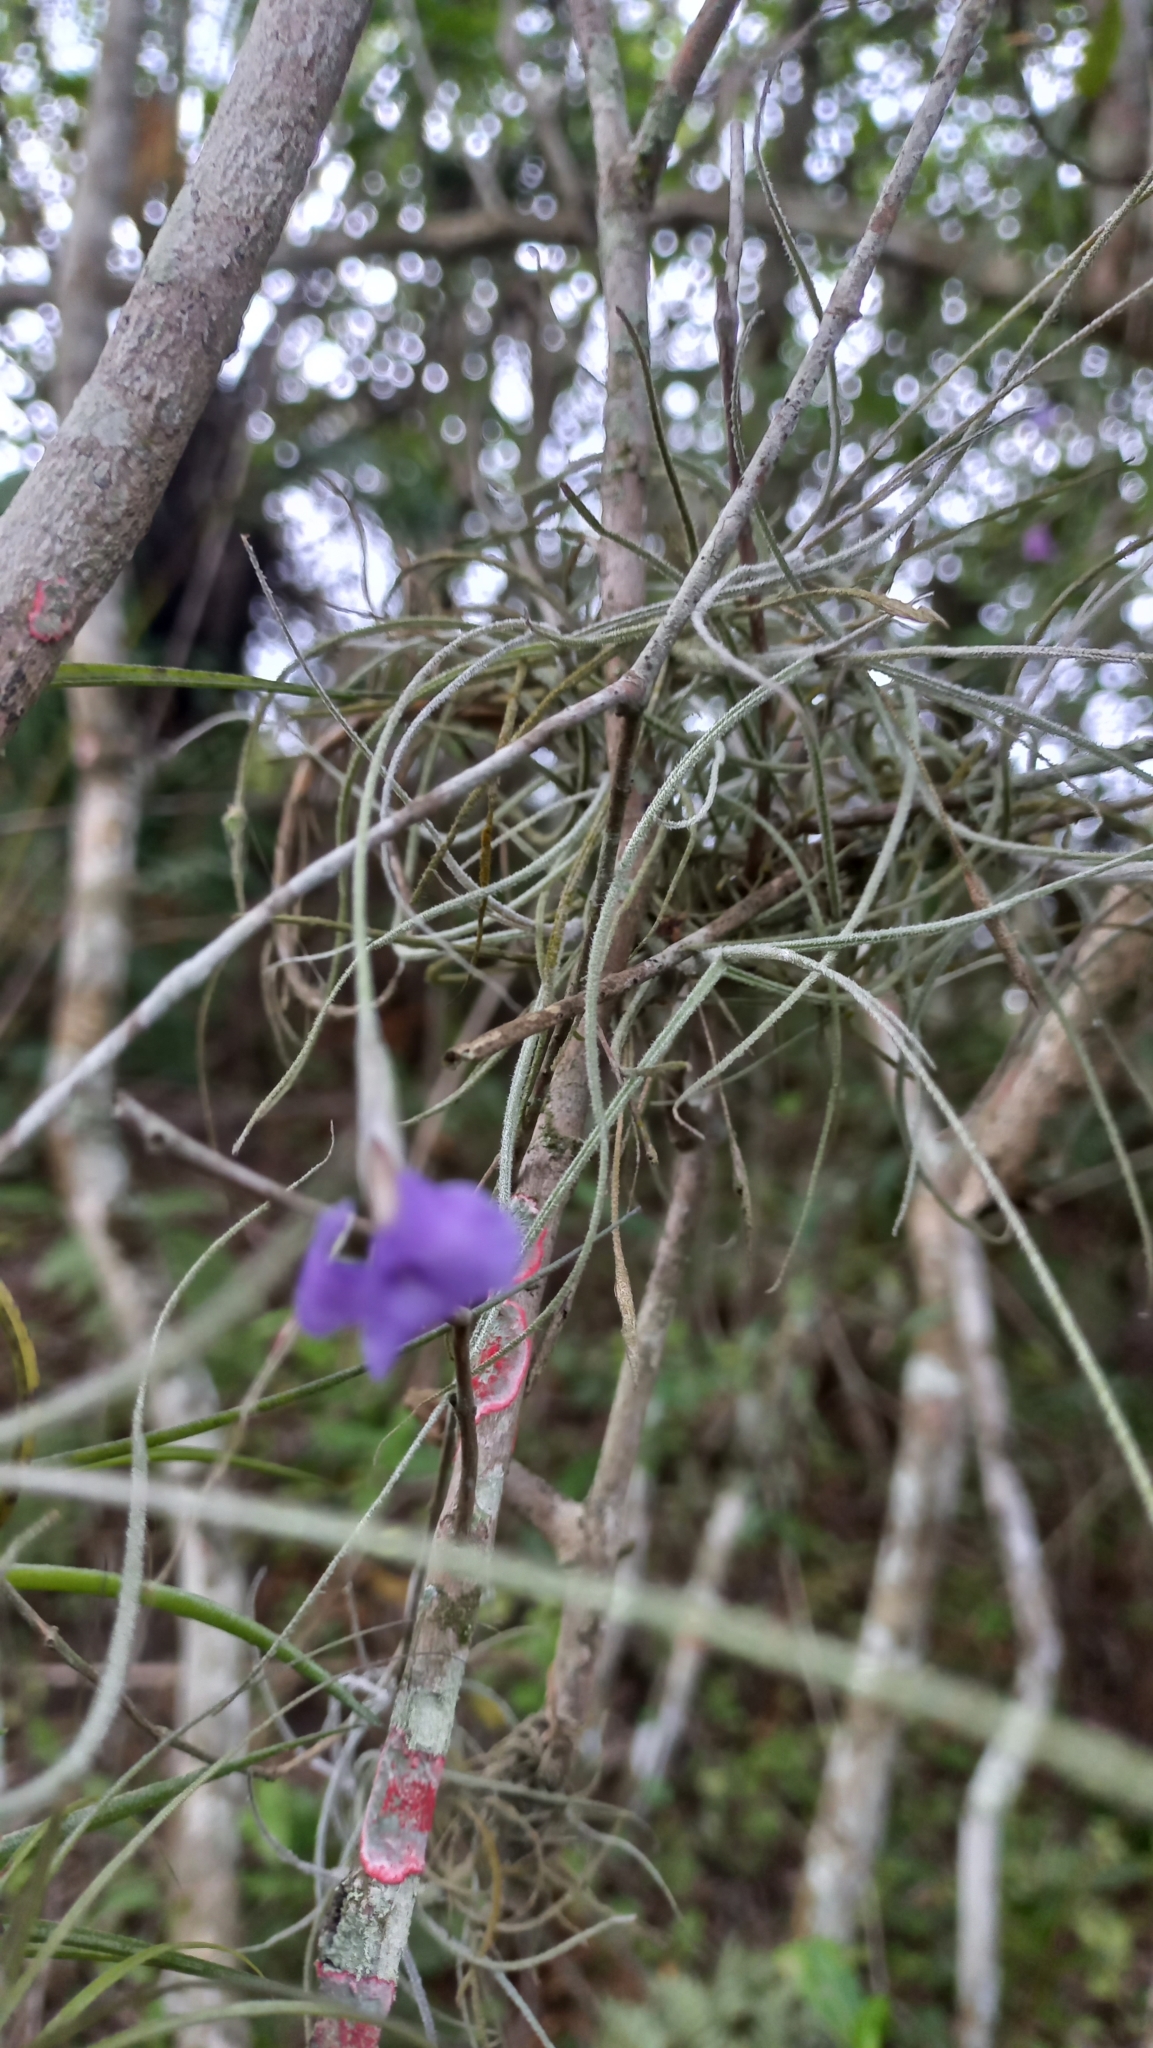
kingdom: Plantae
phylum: Tracheophyta
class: Liliopsida
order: Poales
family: Bromeliaceae
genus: Tillandsia
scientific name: Tillandsia mallemontii
